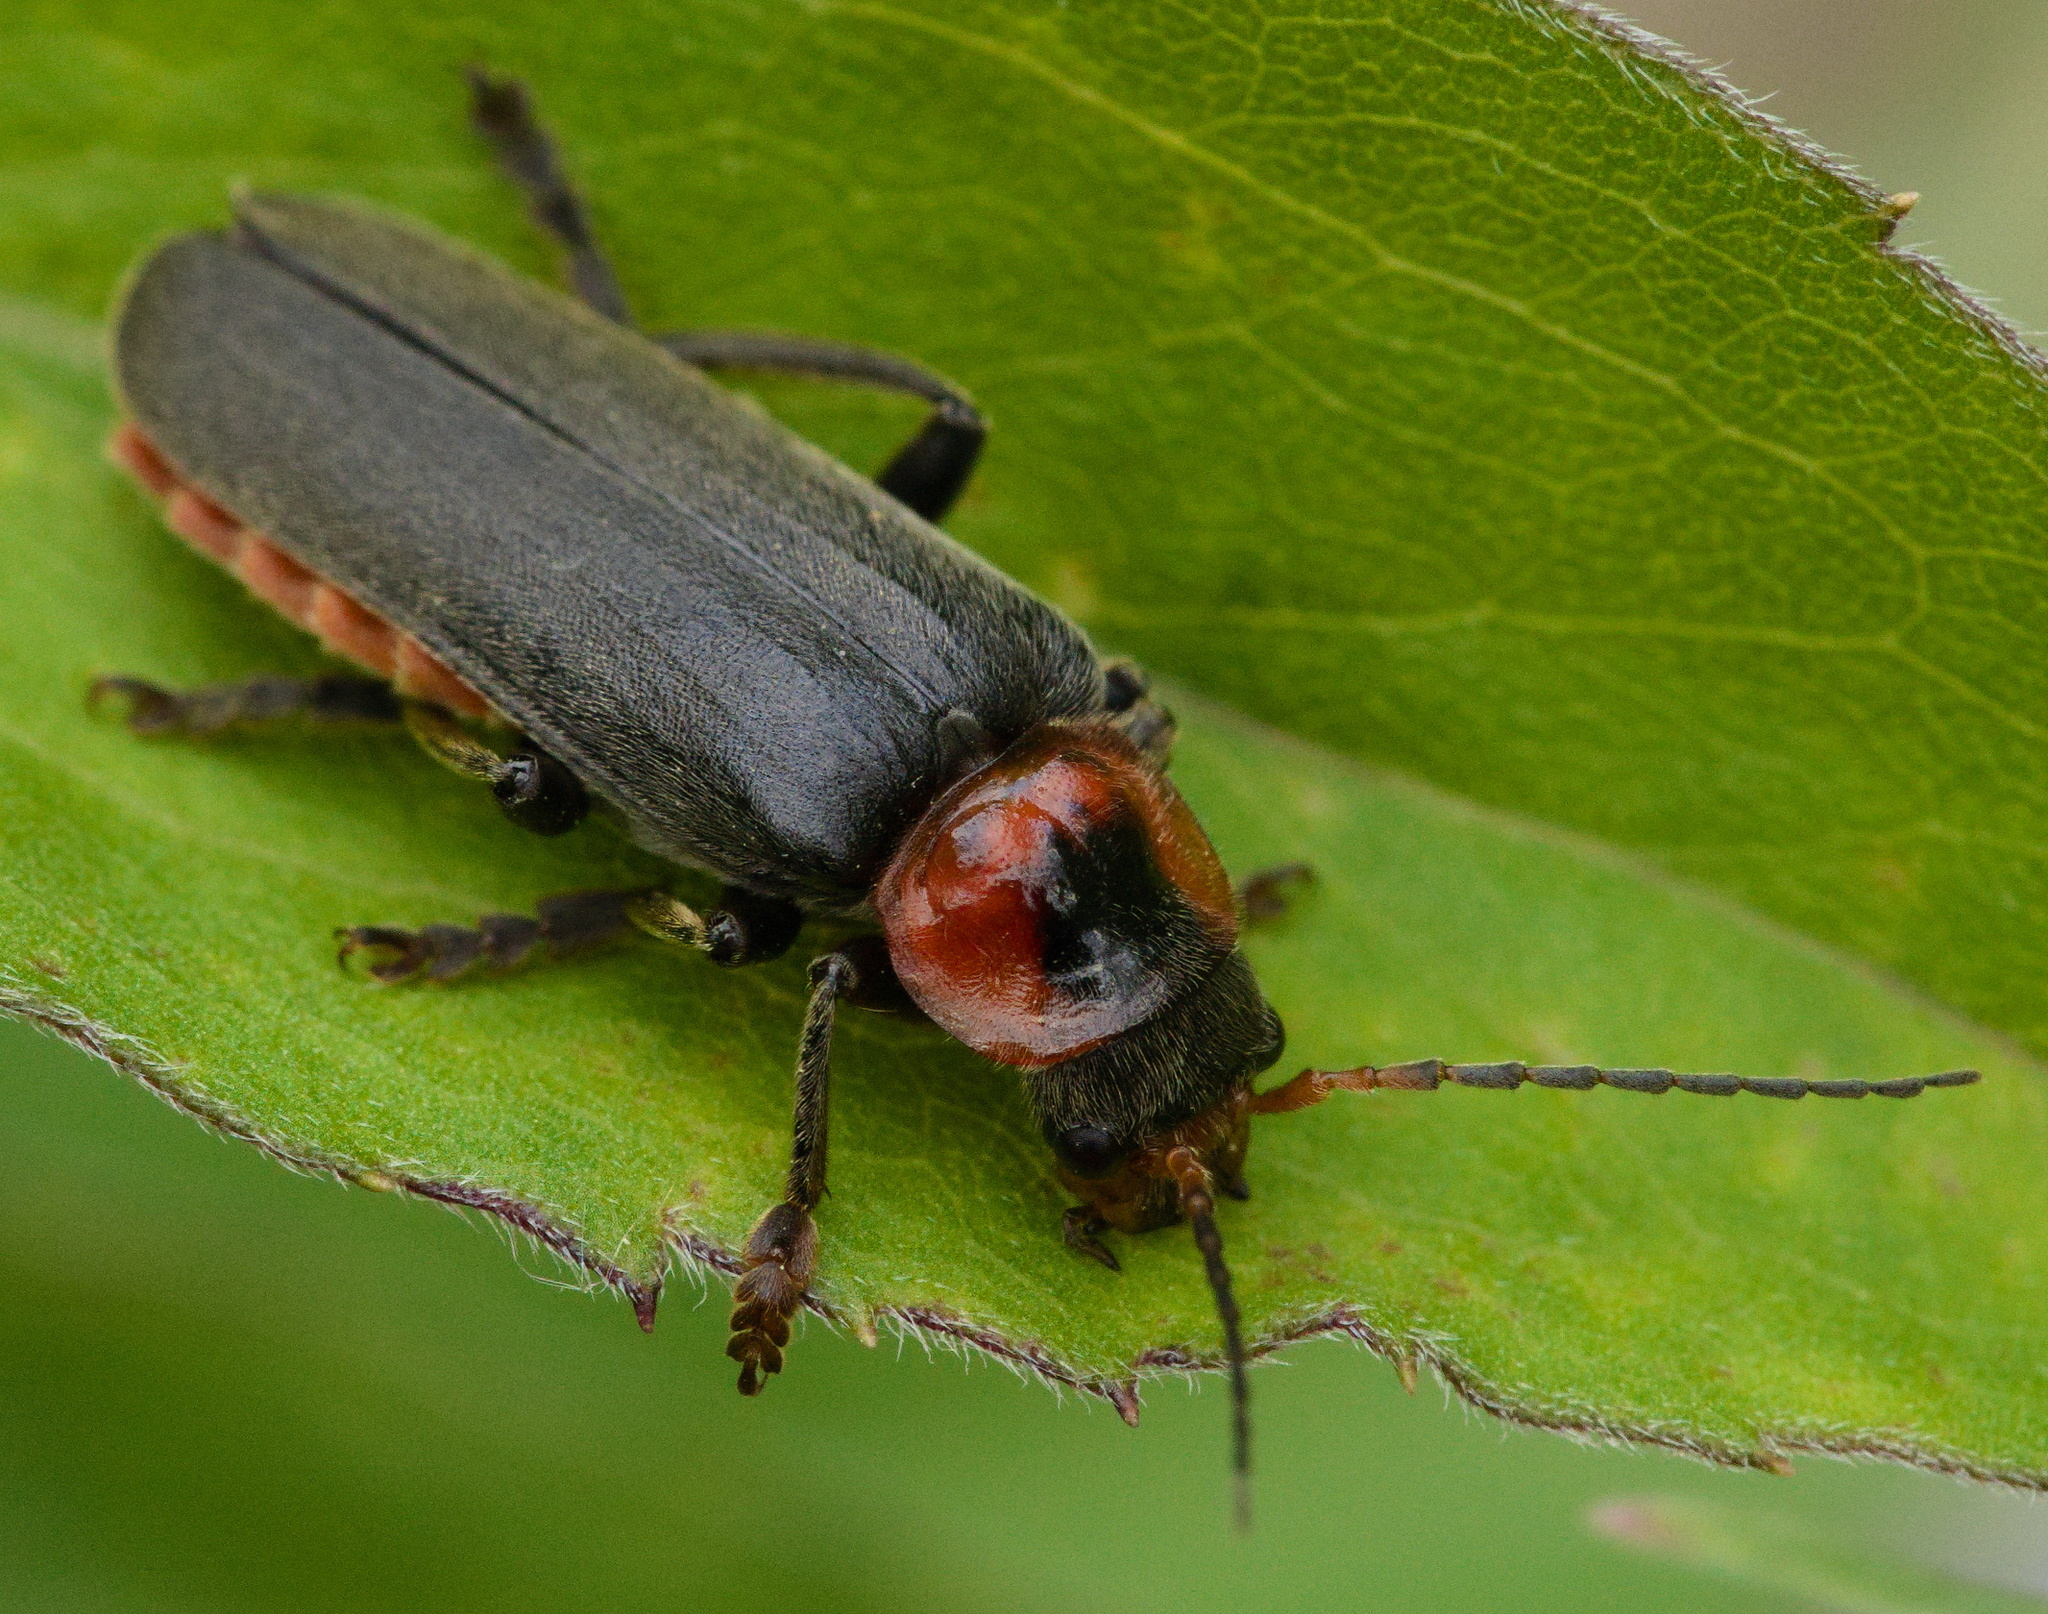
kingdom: Animalia
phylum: Arthropoda
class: Insecta
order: Coleoptera
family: Cantharidae
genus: Cantharis
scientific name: Cantharis fusca
